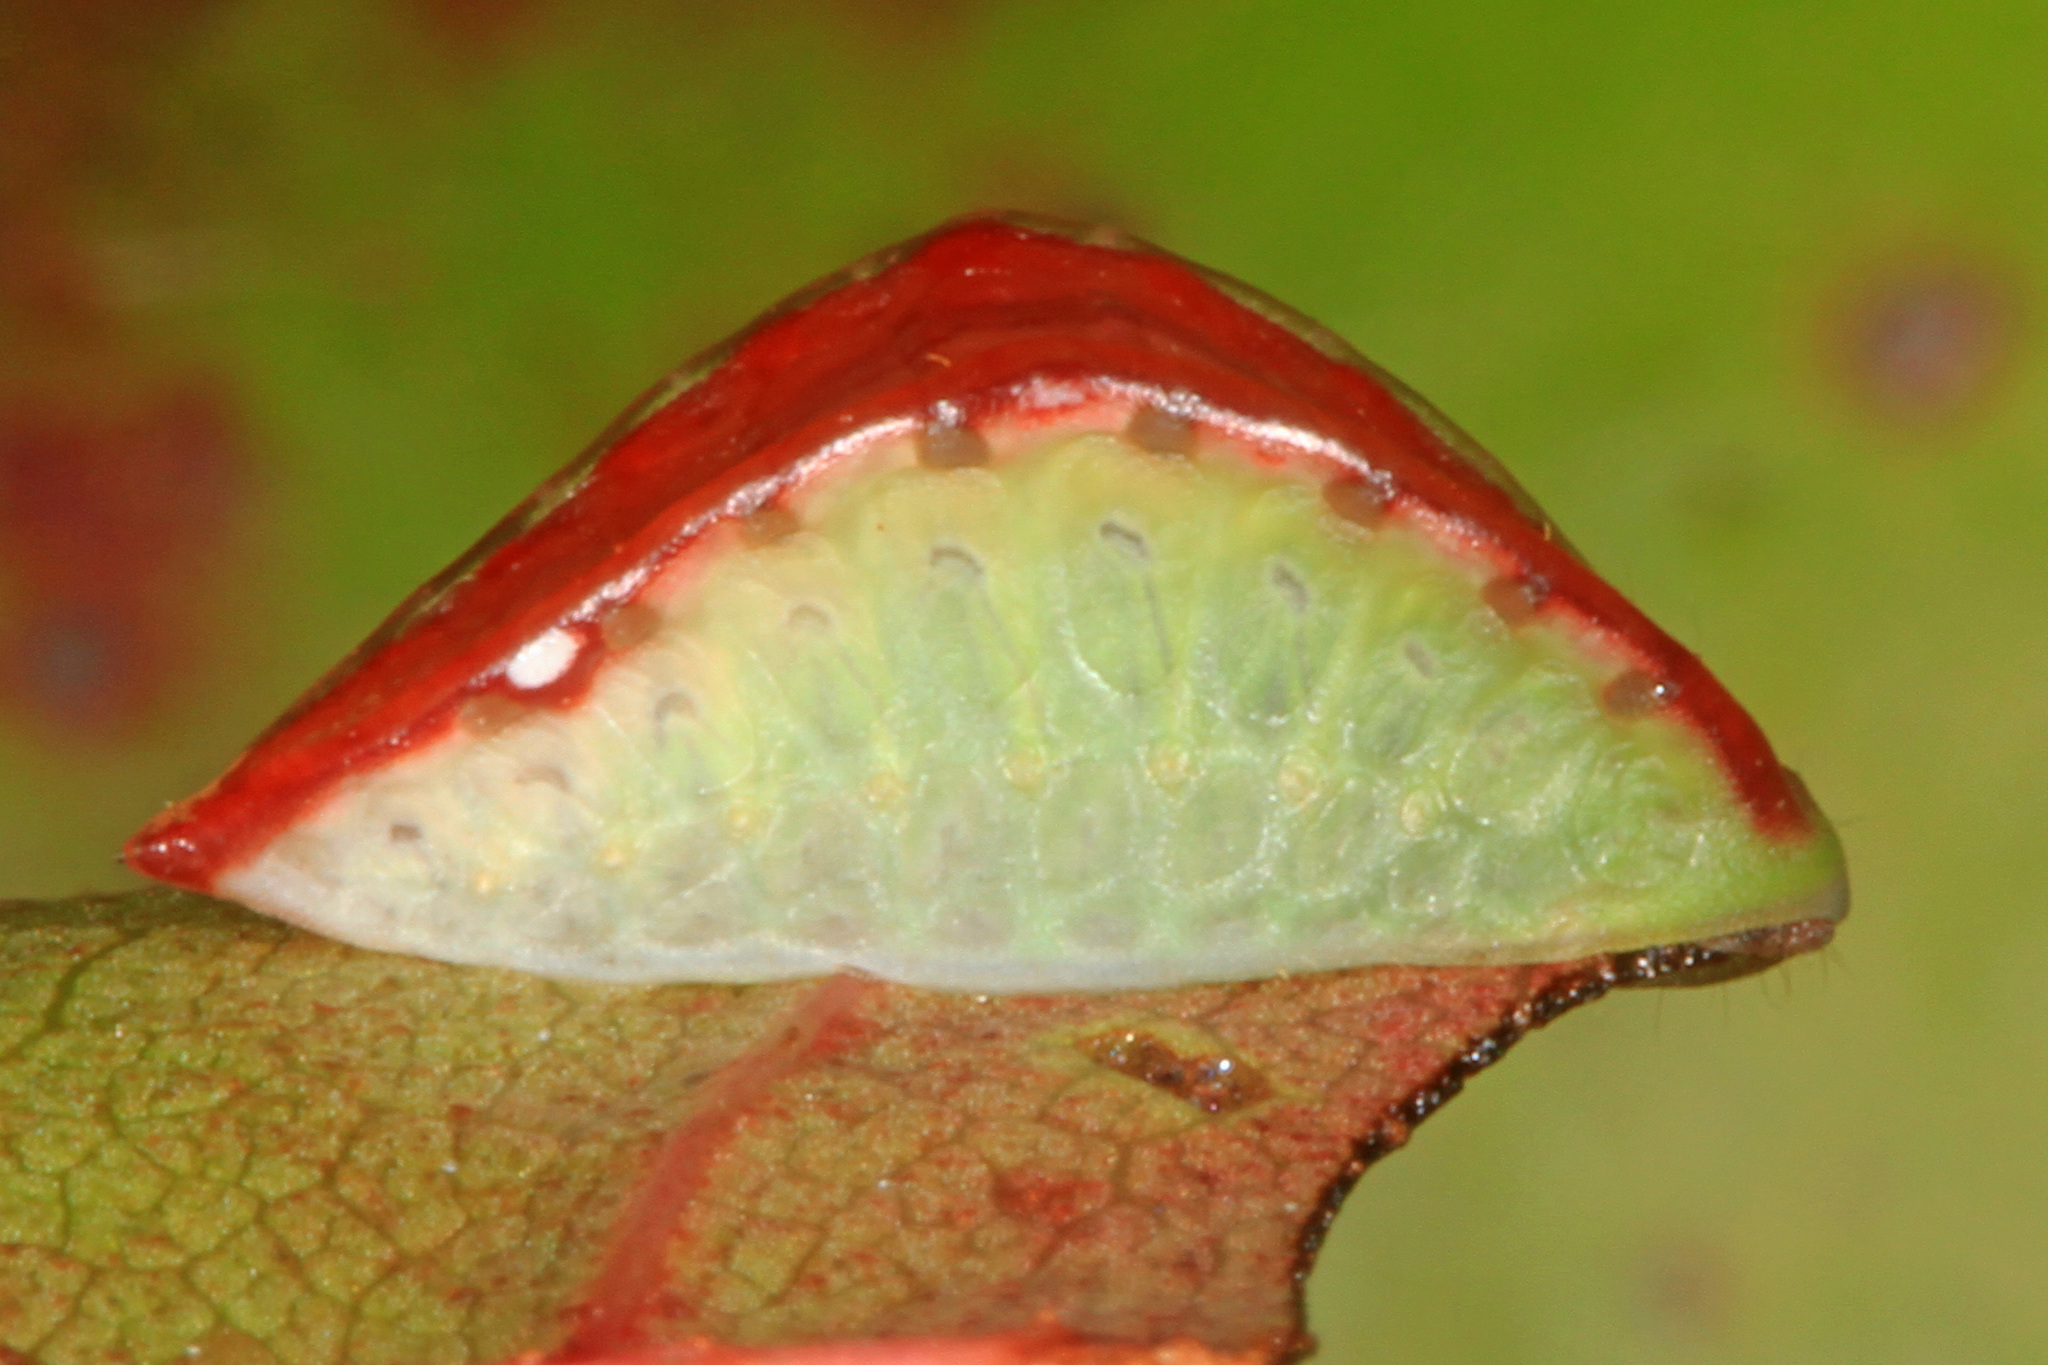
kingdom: Animalia
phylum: Arthropoda
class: Insecta
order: Lepidoptera
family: Limacodidae
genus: Prolimacodes
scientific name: Prolimacodes badia
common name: Skiff moth
